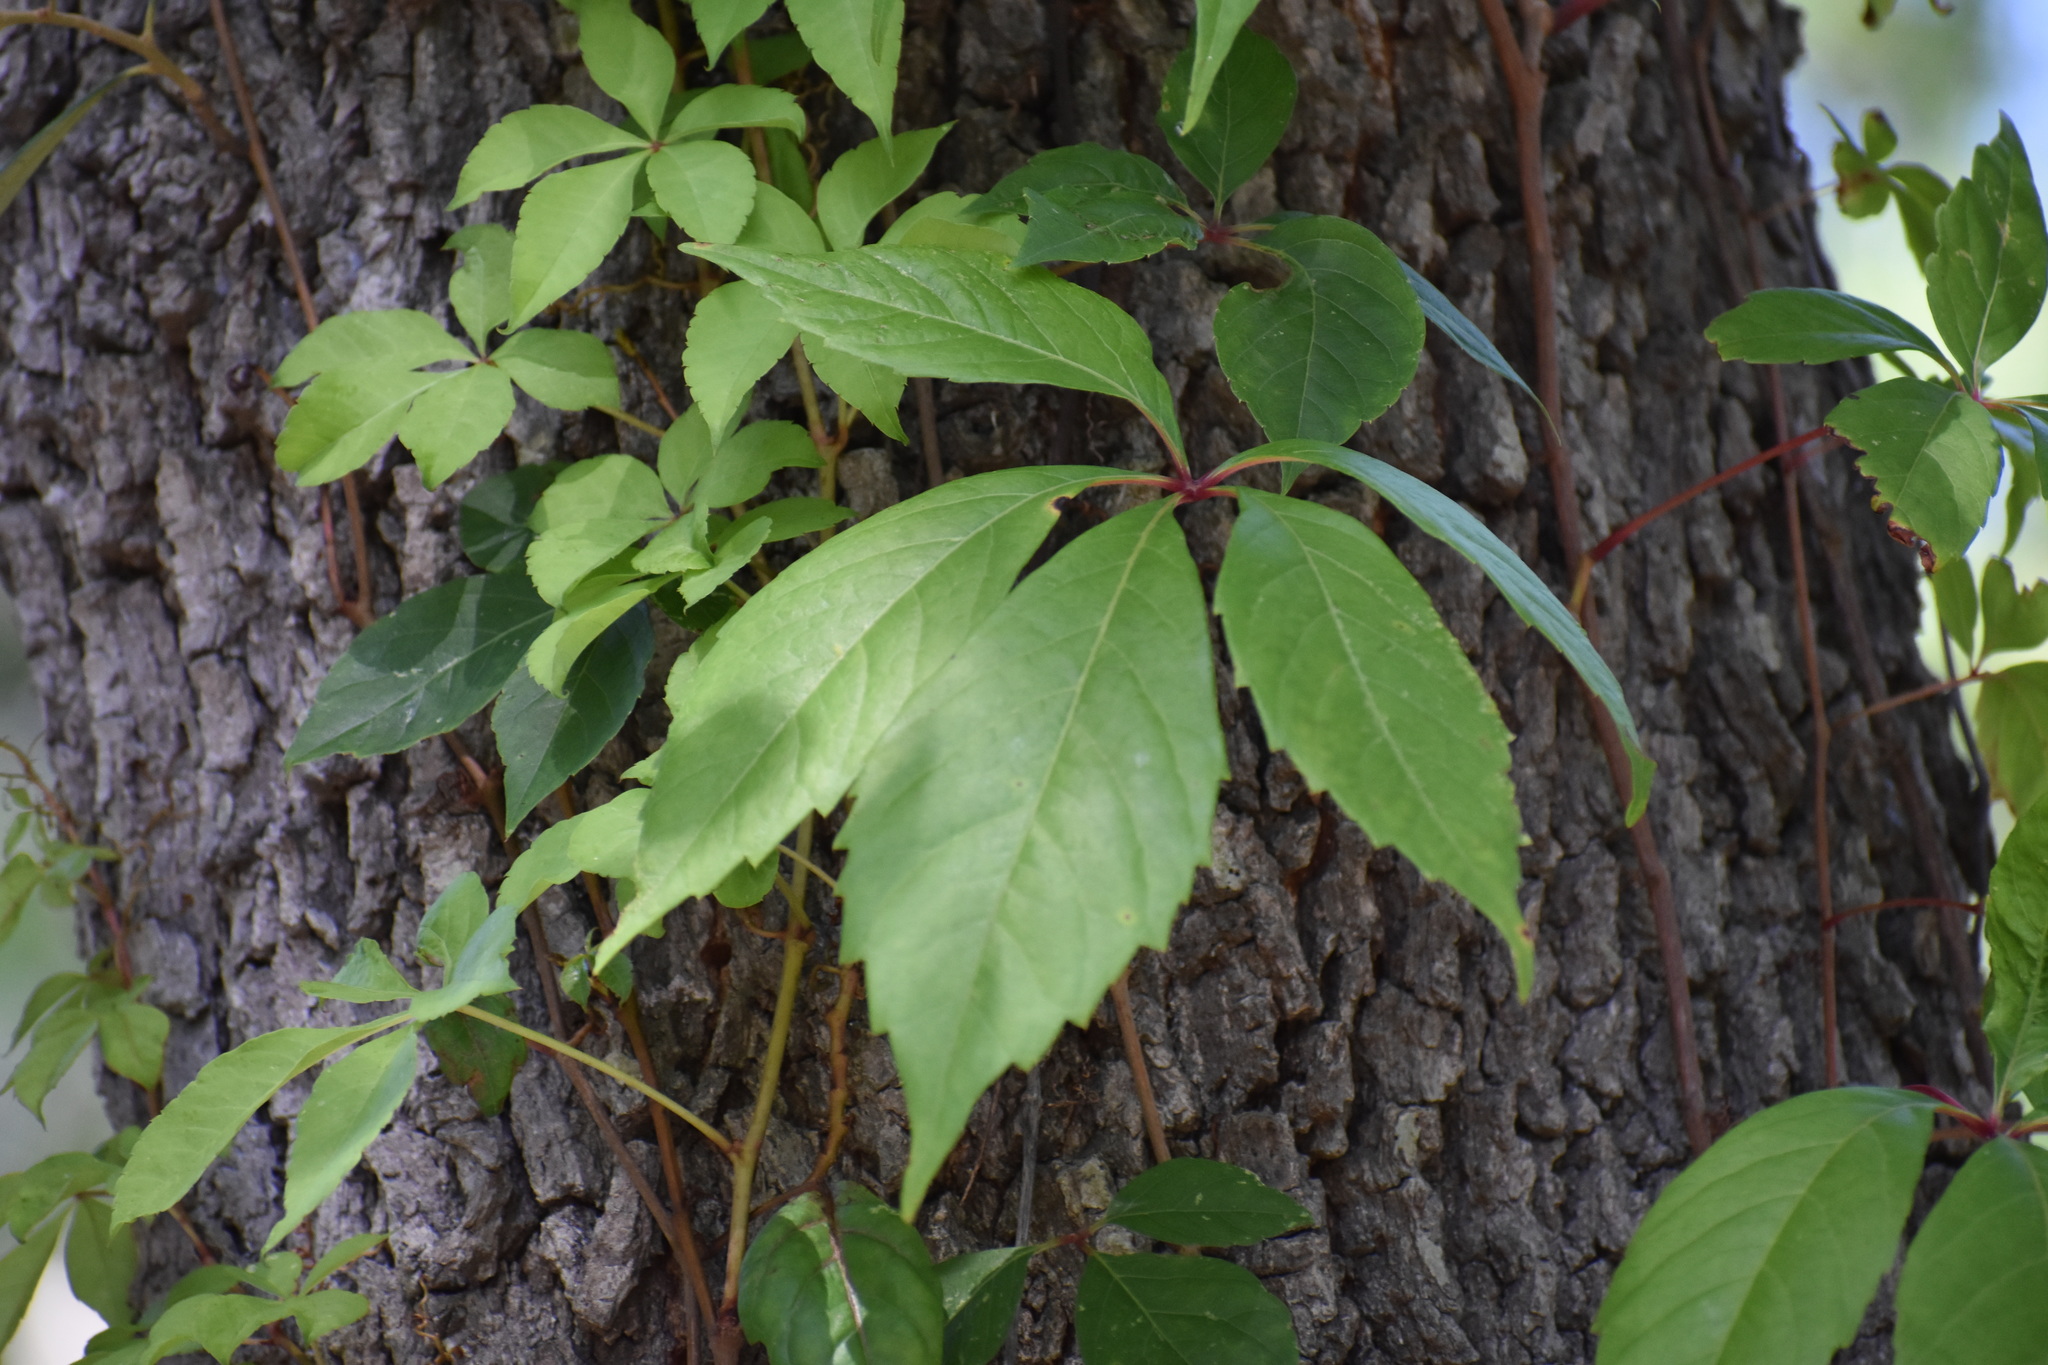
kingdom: Plantae
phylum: Tracheophyta
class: Magnoliopsida
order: Vitales
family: Vitaceae
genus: Parthenocissus
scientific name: Parthenocissus quinquefolia
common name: Virginia-creeper
